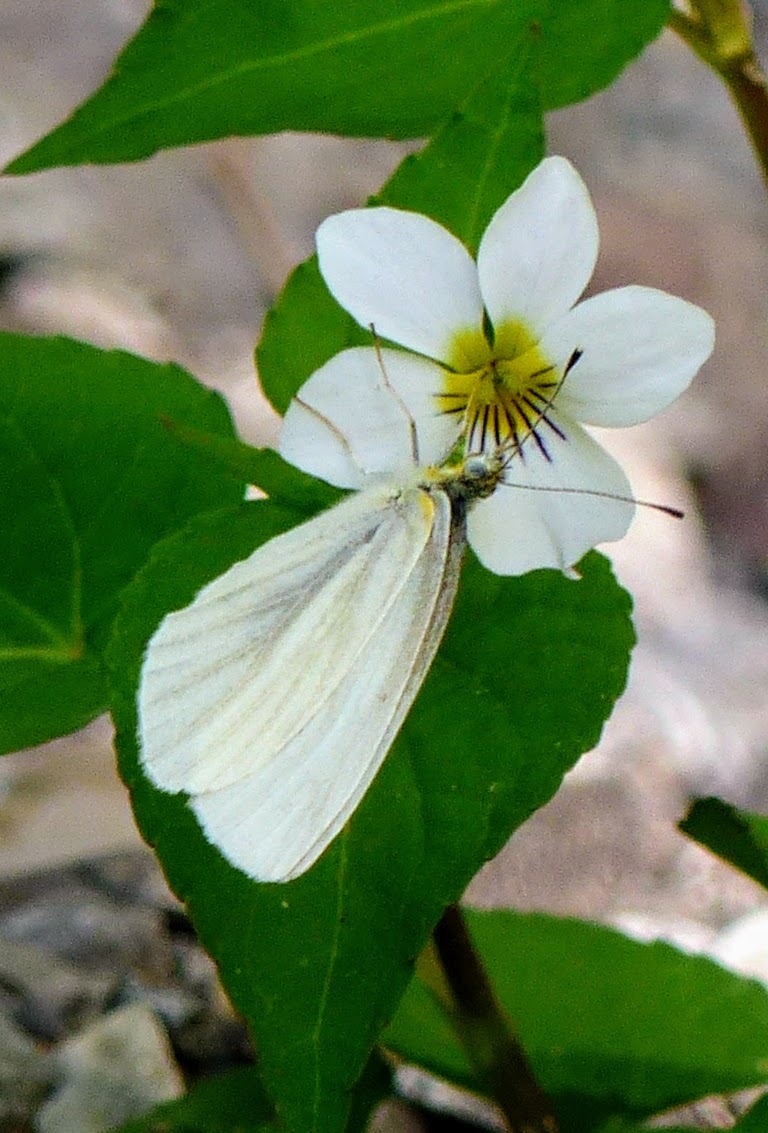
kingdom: Animalia
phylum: Arthropoda
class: Insecta
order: Lepidoptera
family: Pieridae
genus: Pieris
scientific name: Pieris virginiensis
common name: West virginia white
